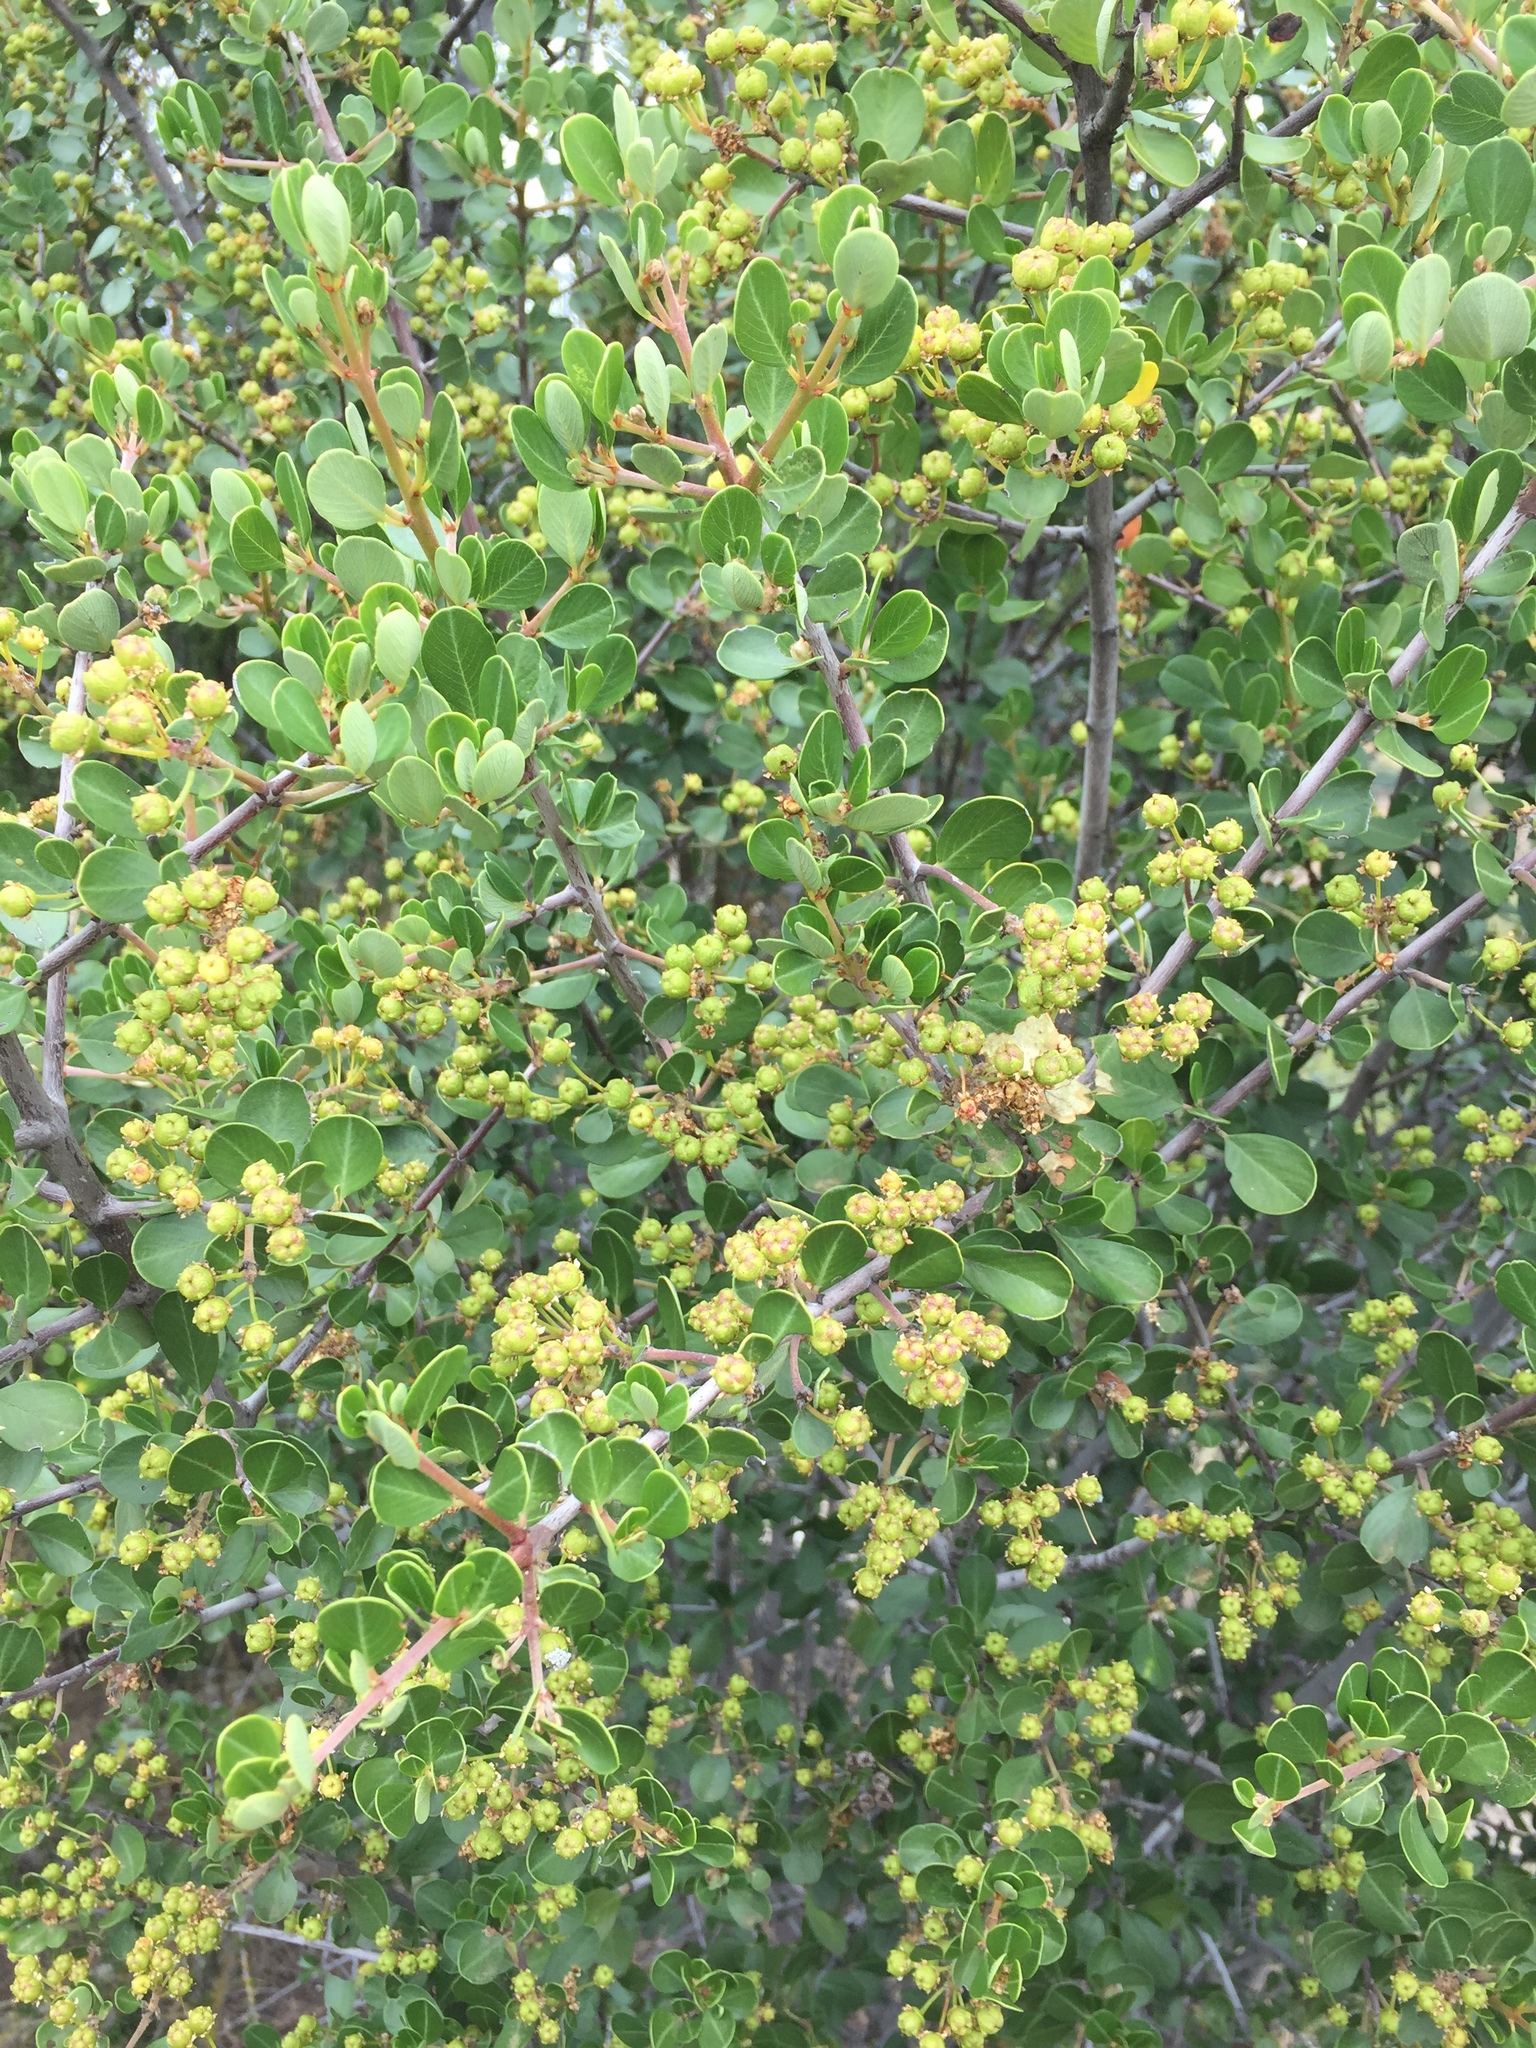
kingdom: Plantae
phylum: Tracheophyta
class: Magnoliopsida
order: Rosales
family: Rhamnaceae
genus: Ceanothus
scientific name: Ceanothus cuneatus
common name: Cuneate ceanothus
